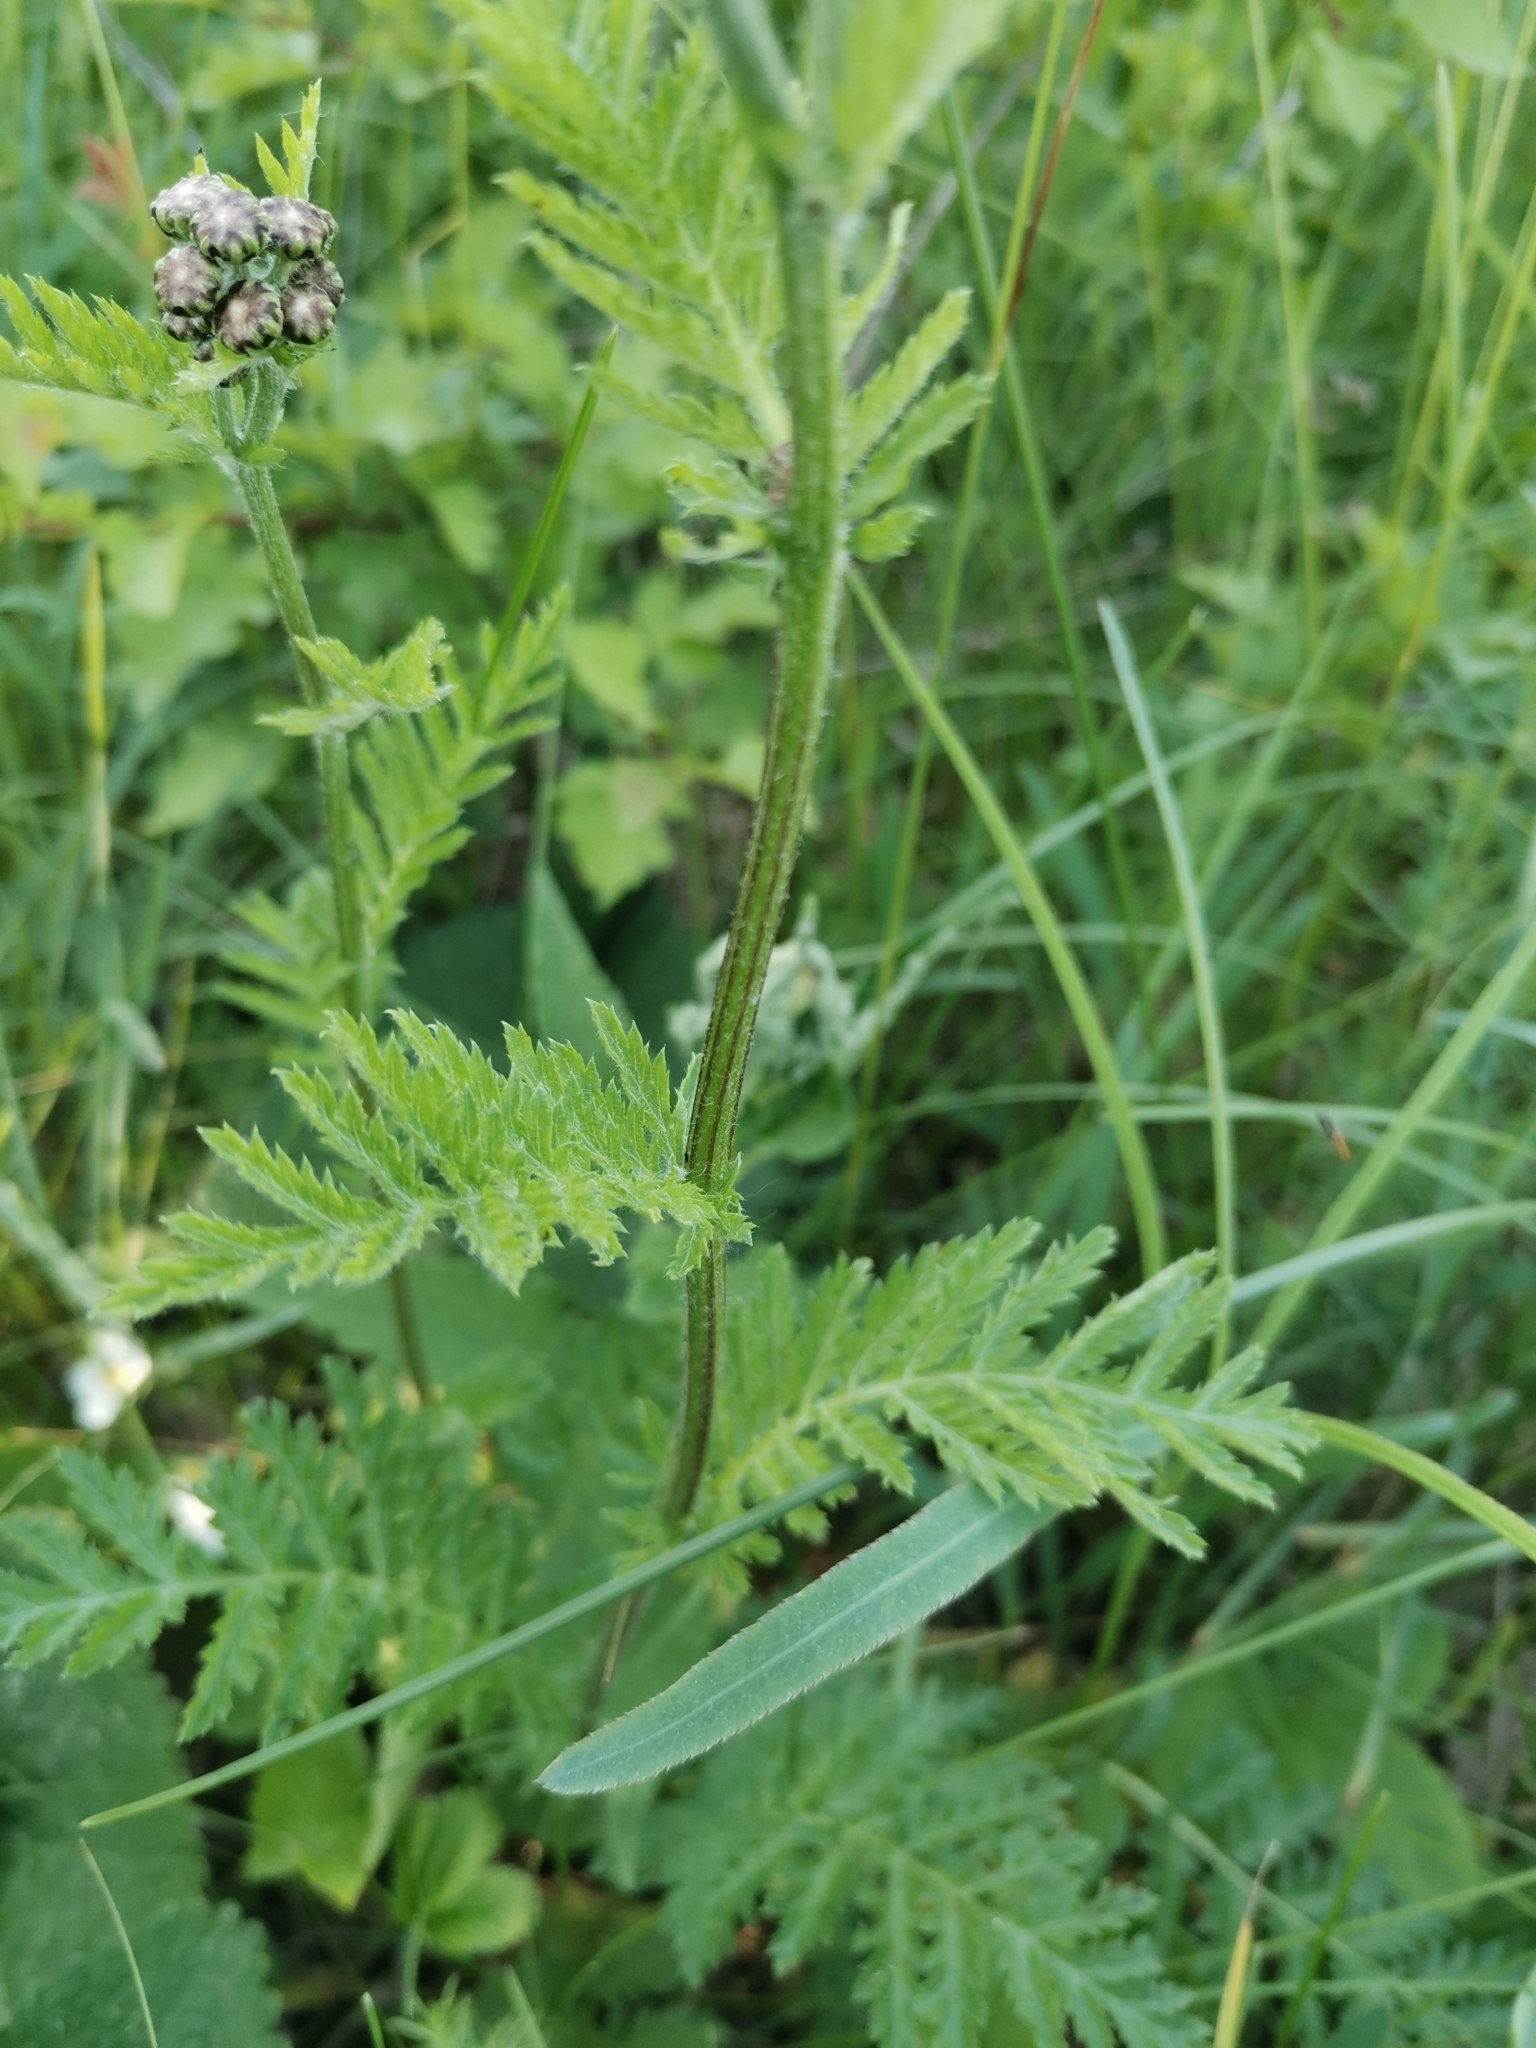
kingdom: Plantae
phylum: Tracheophyta
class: Magnoliopsida
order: Asterales
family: Asteraceae
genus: Tanacetum
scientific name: Tanacetum corymbosum
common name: Scentless feverfew
